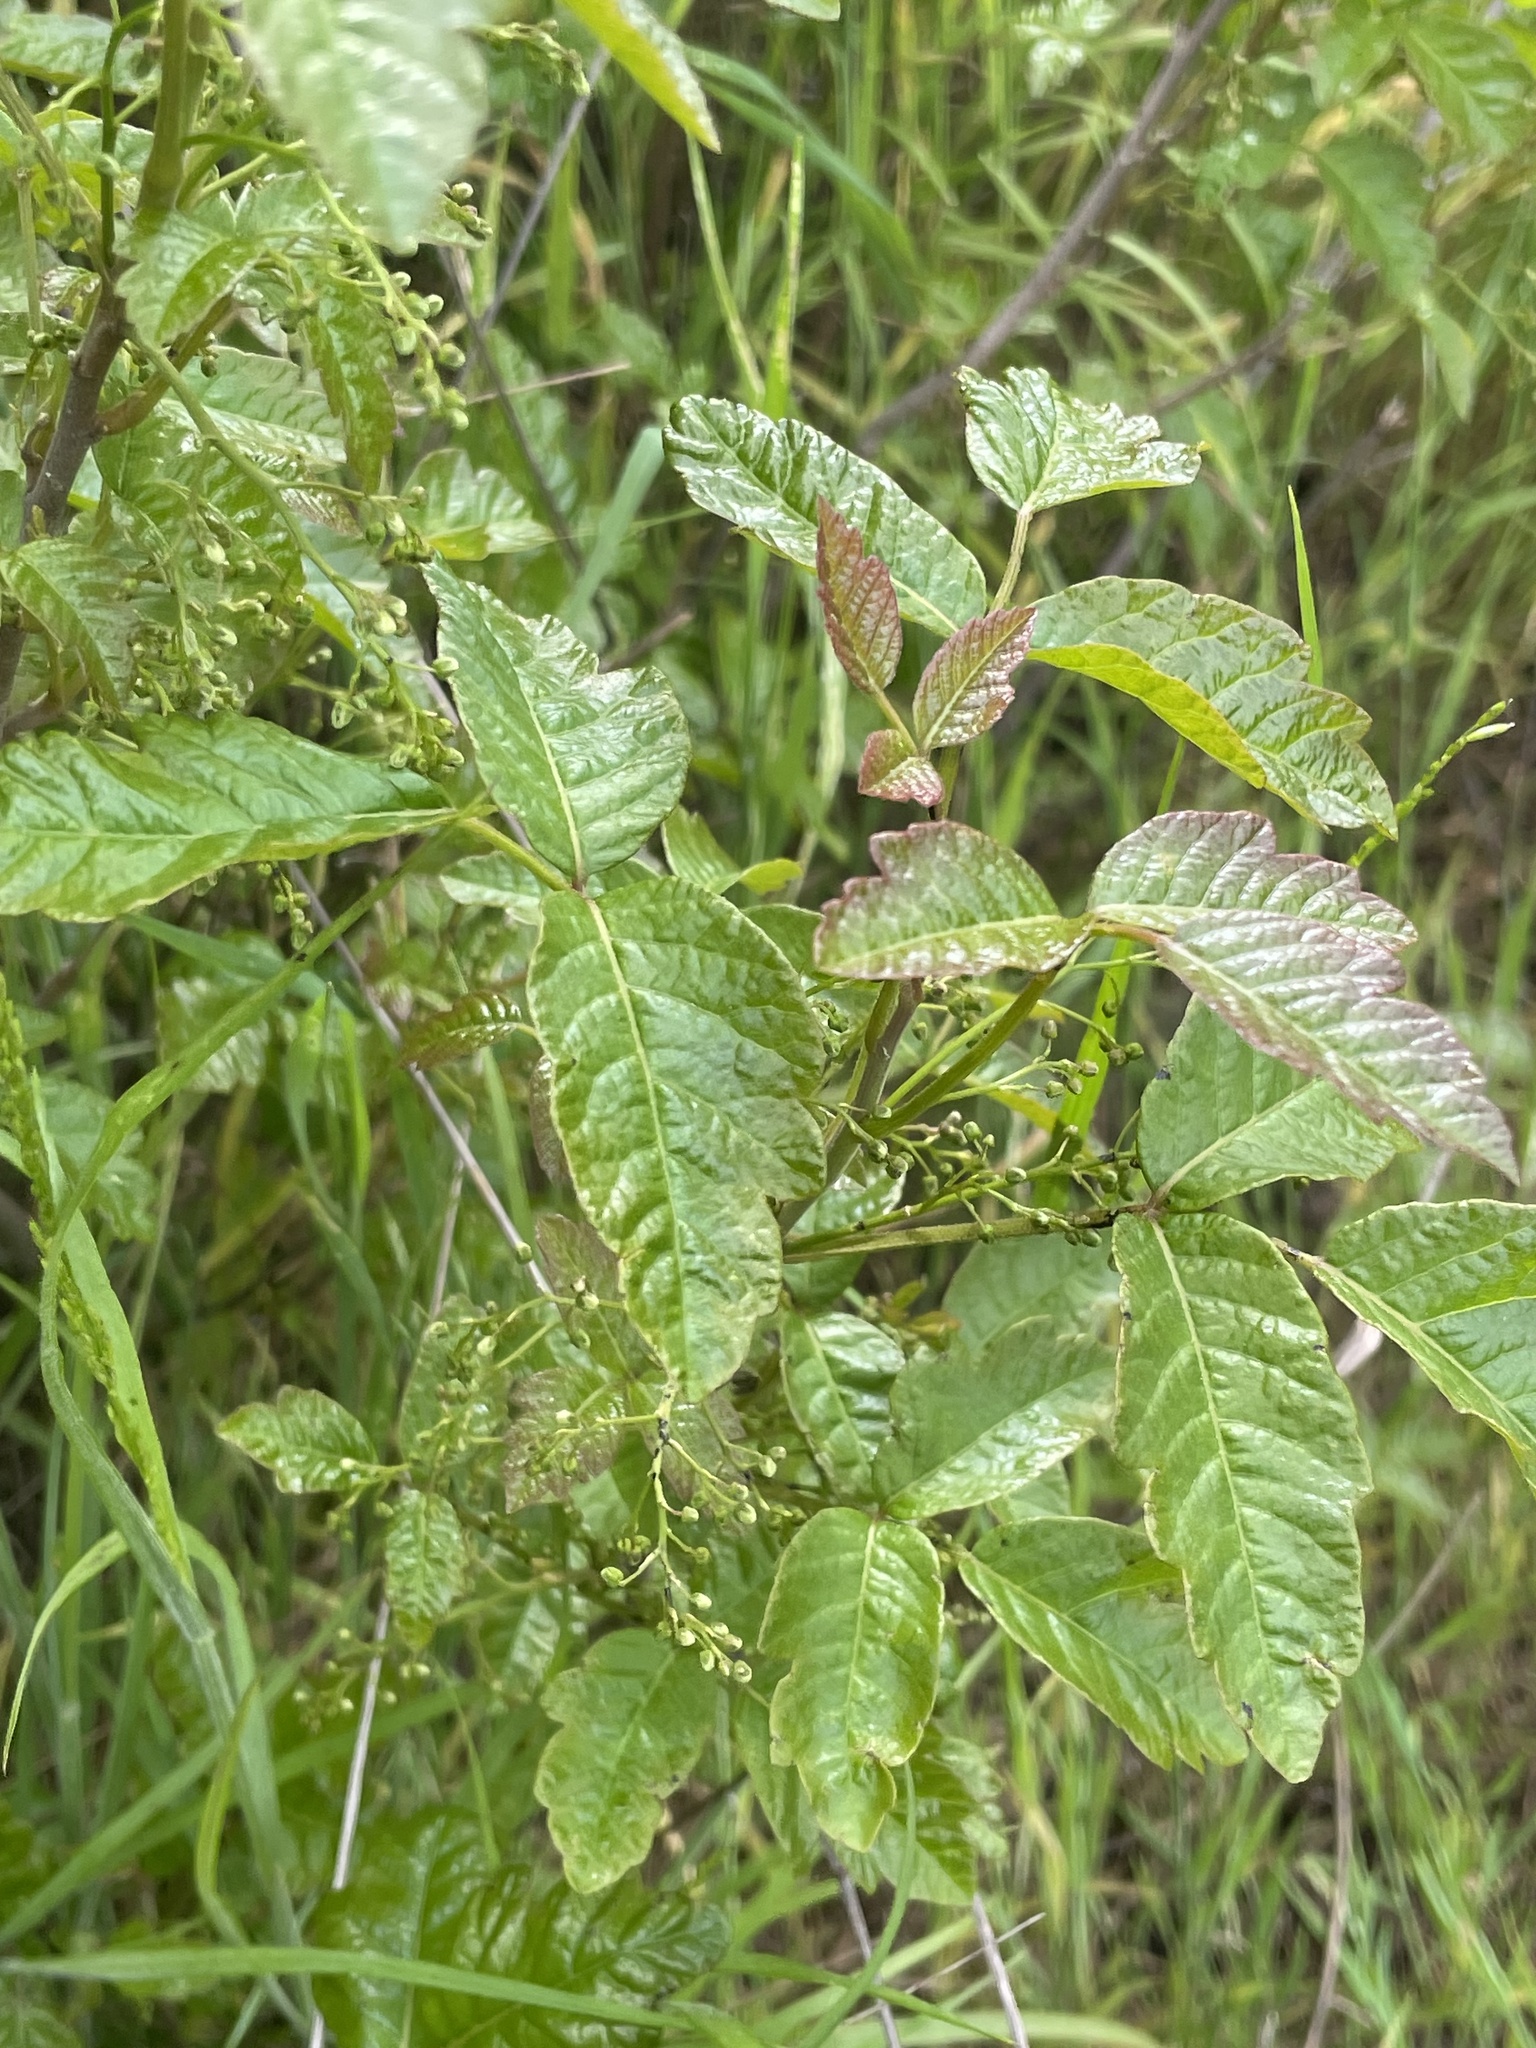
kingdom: Plantae
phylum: Tracheophyta
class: Magnoliopsida
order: Sapindales
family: Anacardiaceae
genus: Toxicodendron
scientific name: Toxicodendron diversilobum
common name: Pacific poison-oak
